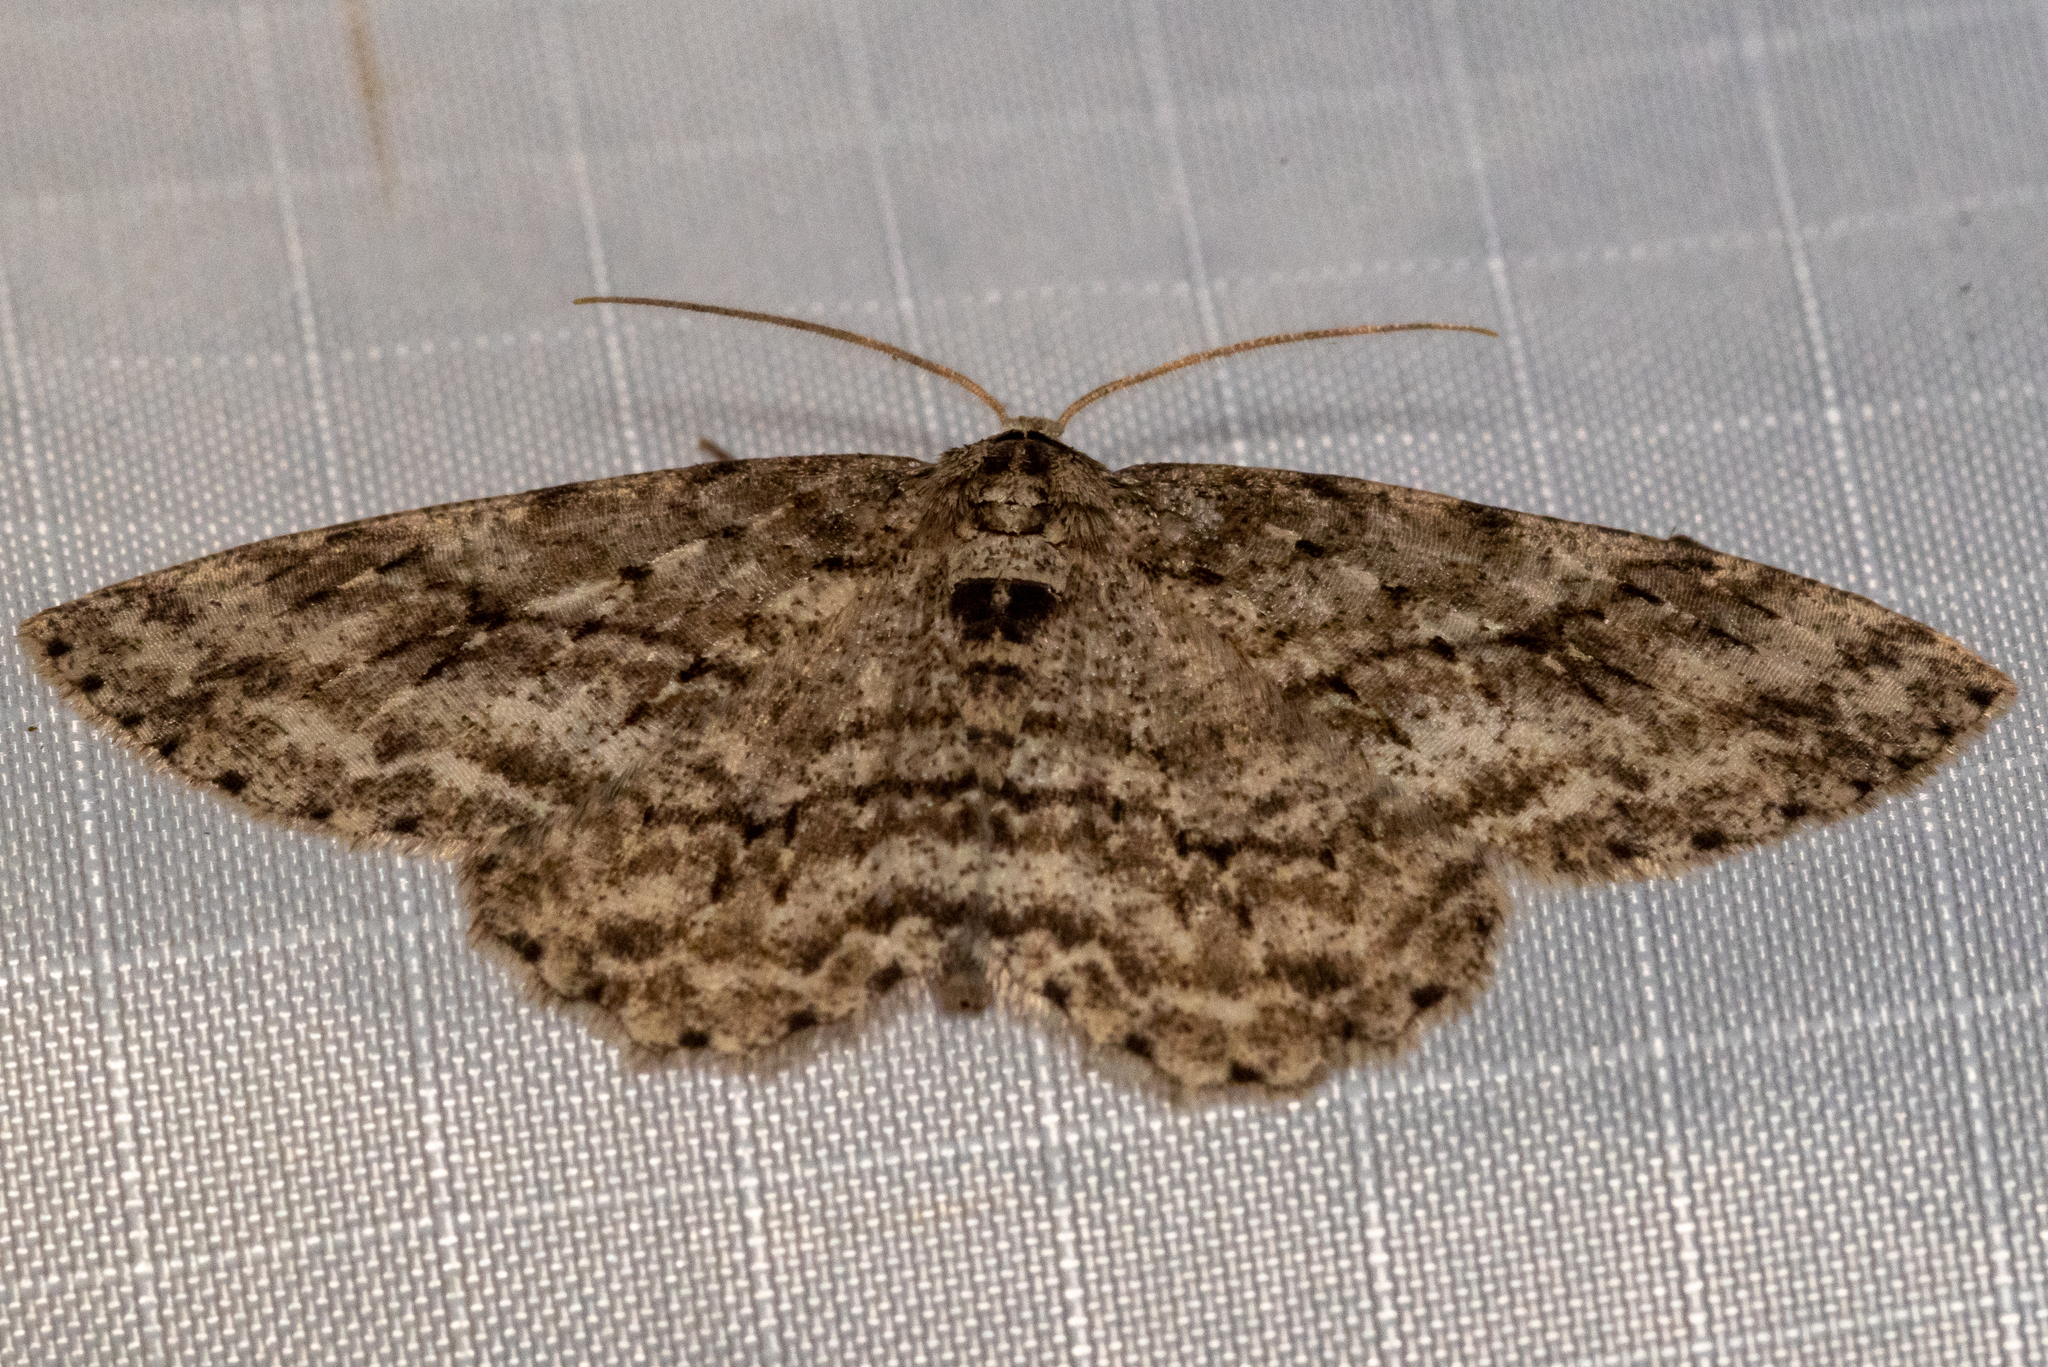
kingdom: Animalia
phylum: Arthropoda
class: Insecta
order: Lepidoptera
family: Geometridae
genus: Ectropis
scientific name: Ectropis crepuscularia
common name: Engrailed
